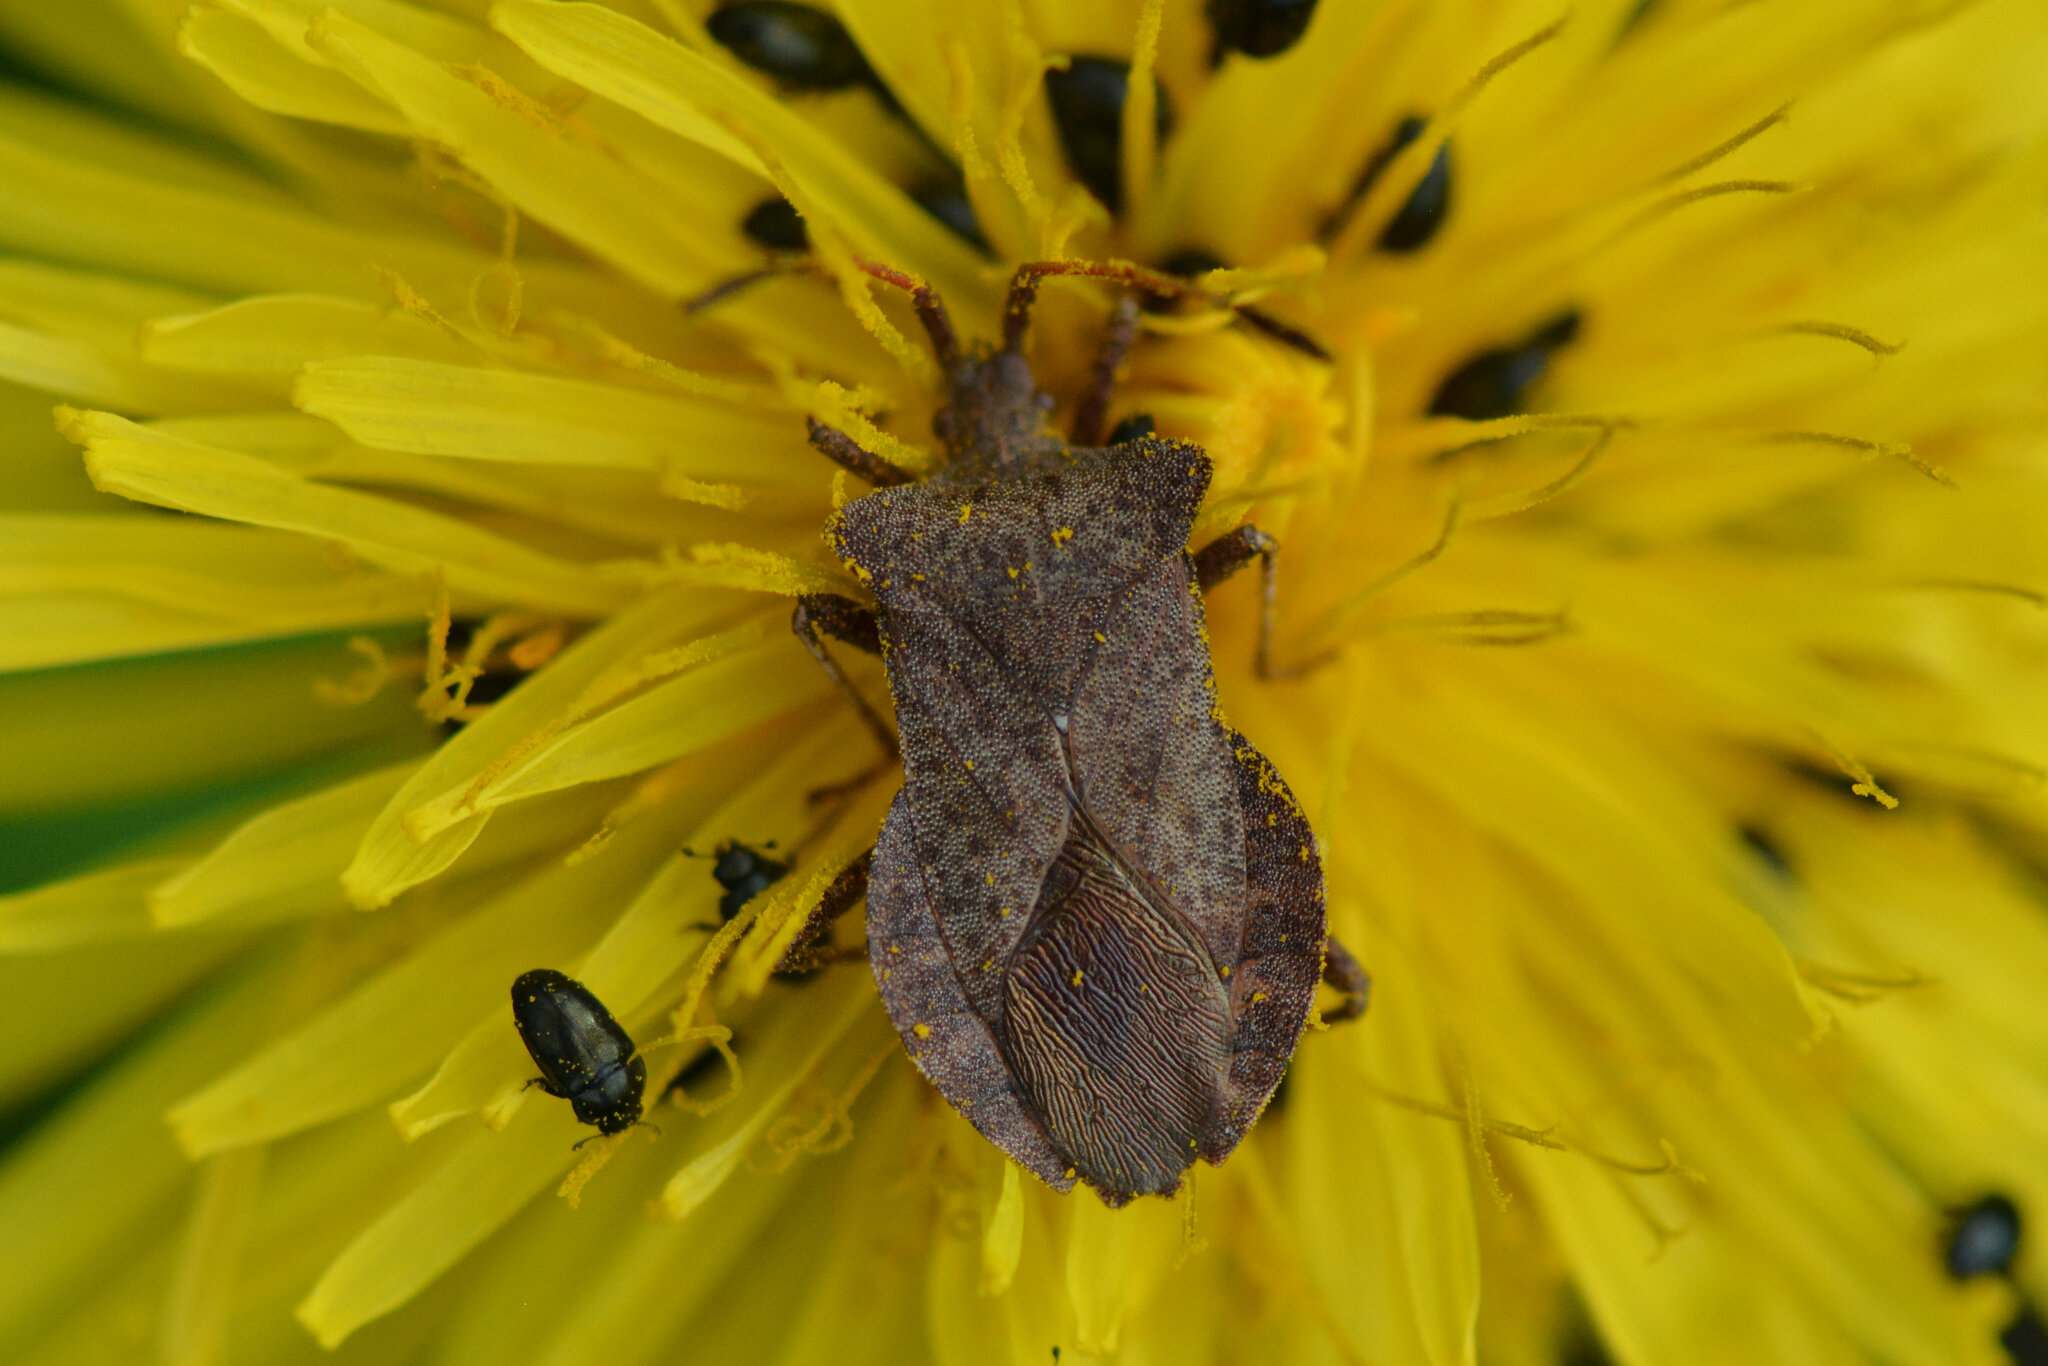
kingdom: Animalia
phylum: Arthropoda
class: Insecta
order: Hemiptera
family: Coreidae
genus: Coreus
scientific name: Coreus marginatus
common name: Dock bug
